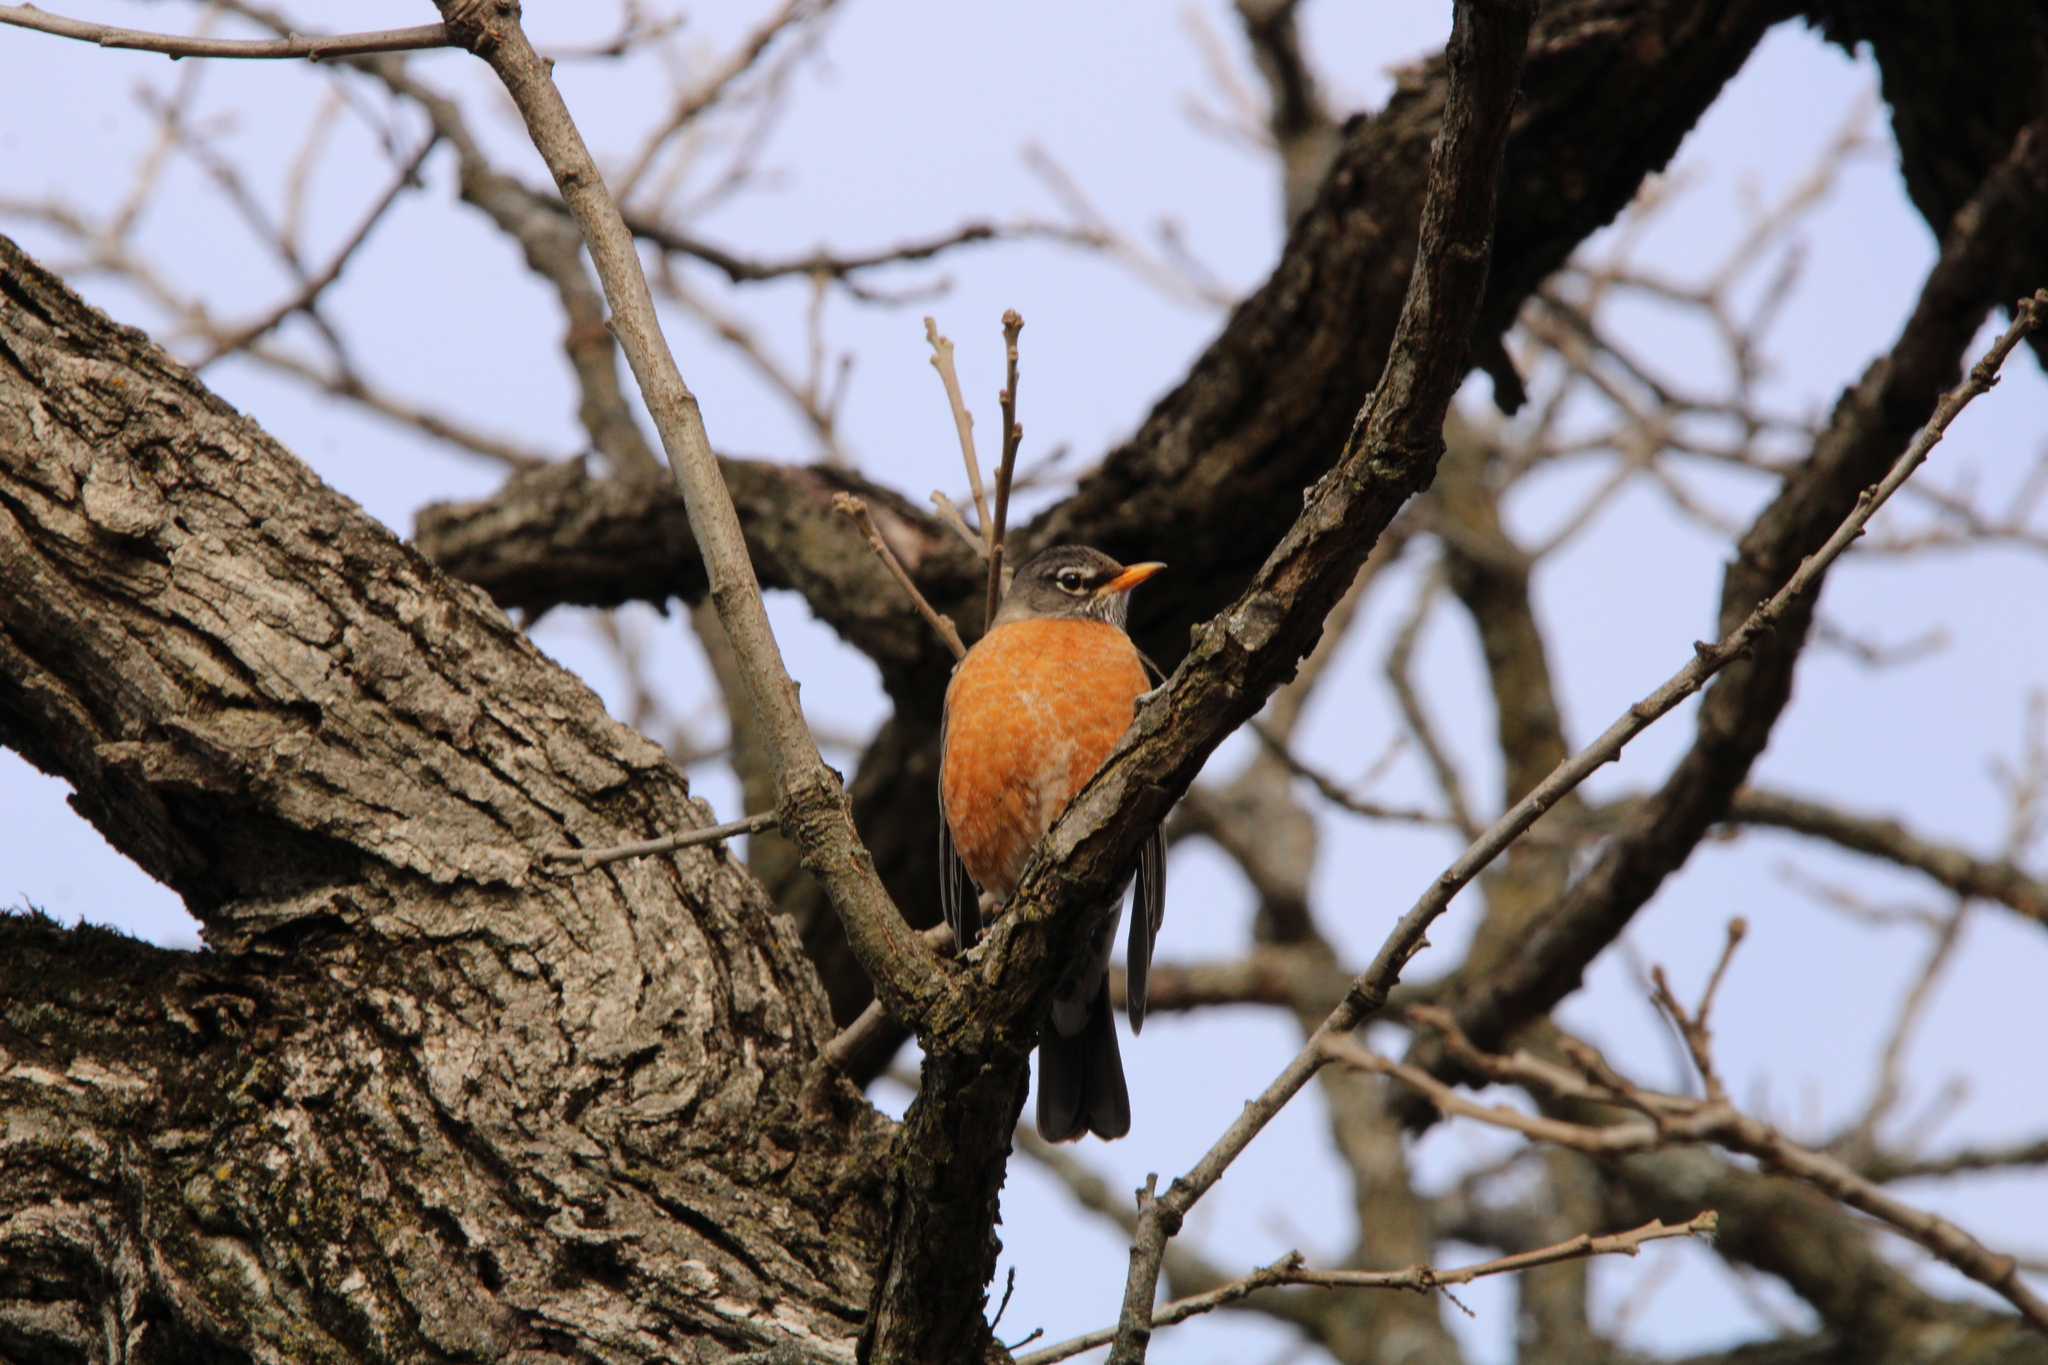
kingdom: Animalia
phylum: Chordata
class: Aves
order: Passeriformes
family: Turdidae
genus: Turdus
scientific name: Turdus migratorius
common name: American robin
